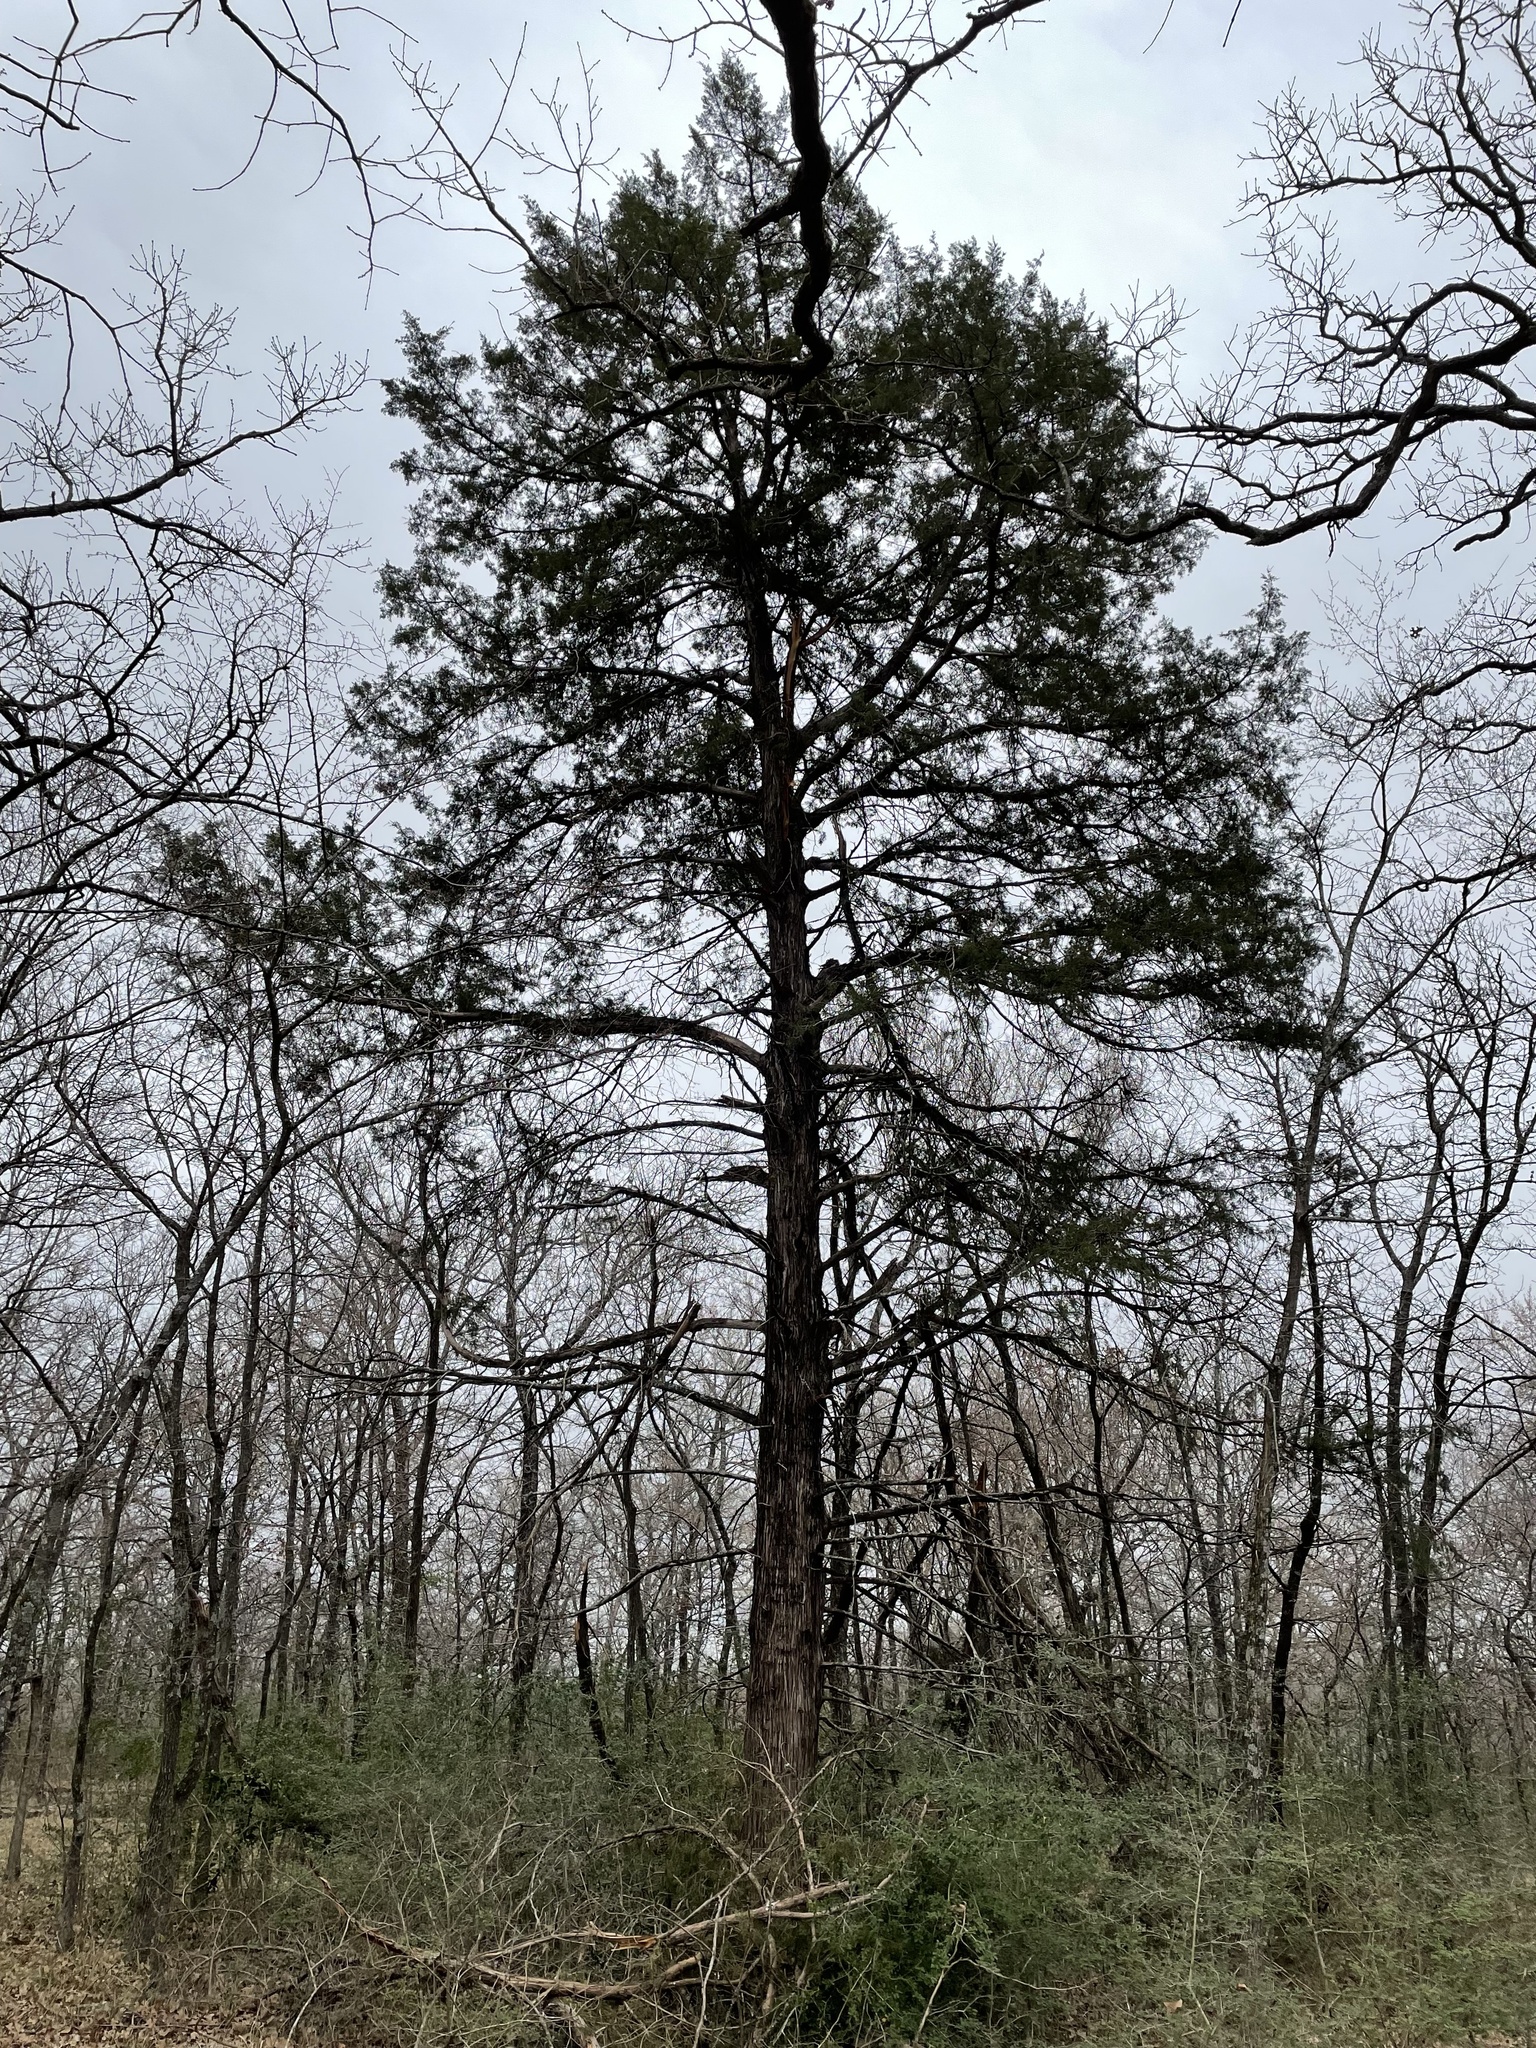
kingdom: Plantae
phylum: Tracheophyta
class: Pinopsida
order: Pinales
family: Cupressaceae
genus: Juniperus
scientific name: Juniperus virginiana
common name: Red juniper
